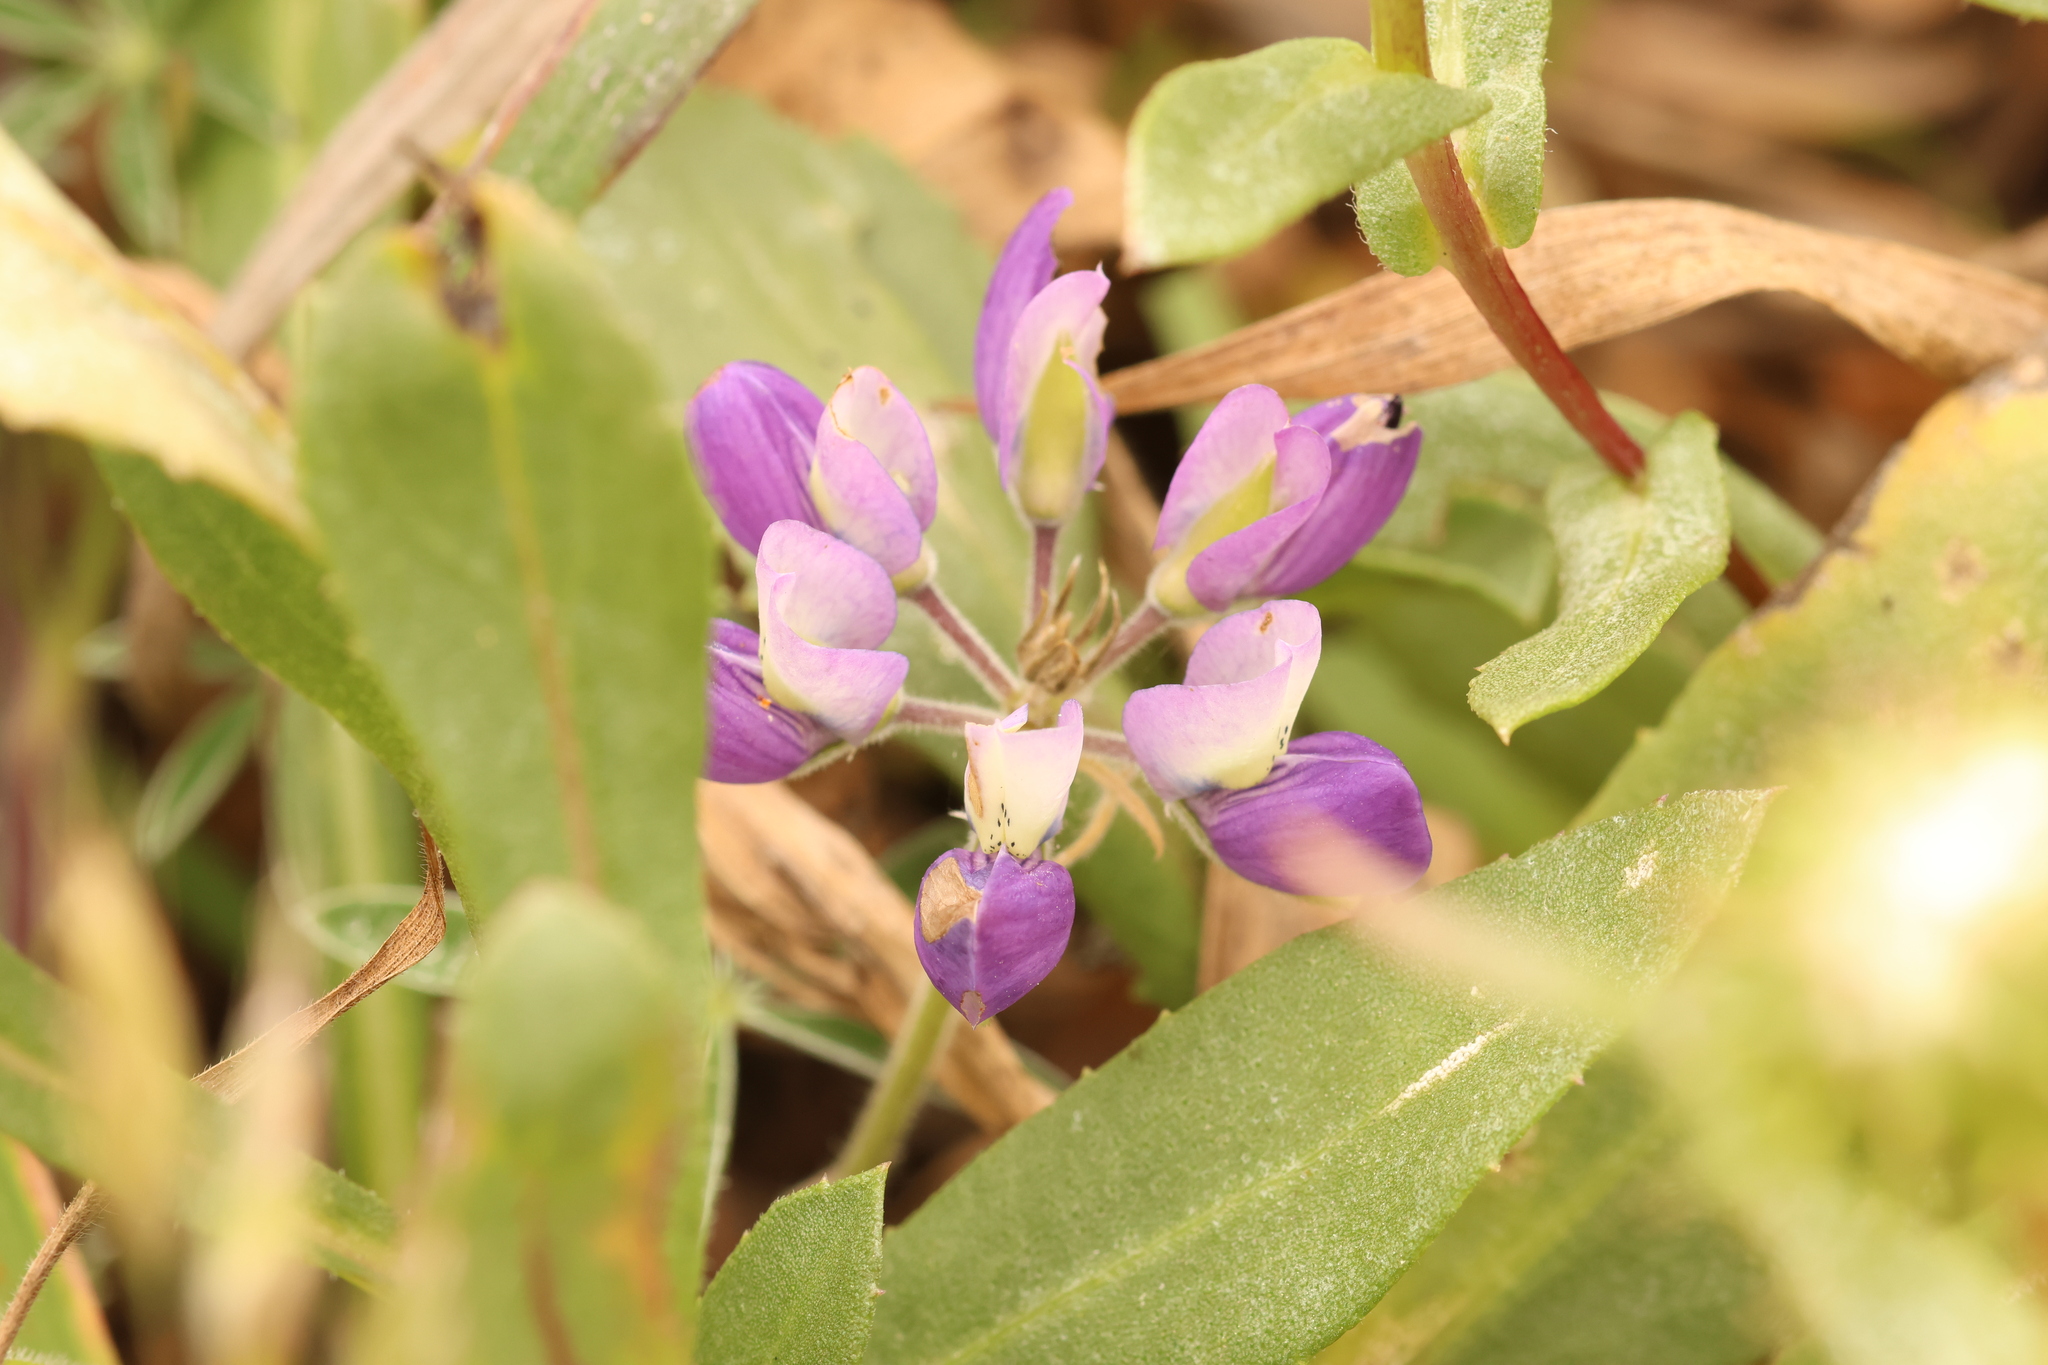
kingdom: Plantae
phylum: Tracheophyta
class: Magnoliopsida
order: Fabales
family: Fabaceae
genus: Lupinus
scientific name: Lupinus variicolor
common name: Lindley's varied lupine
